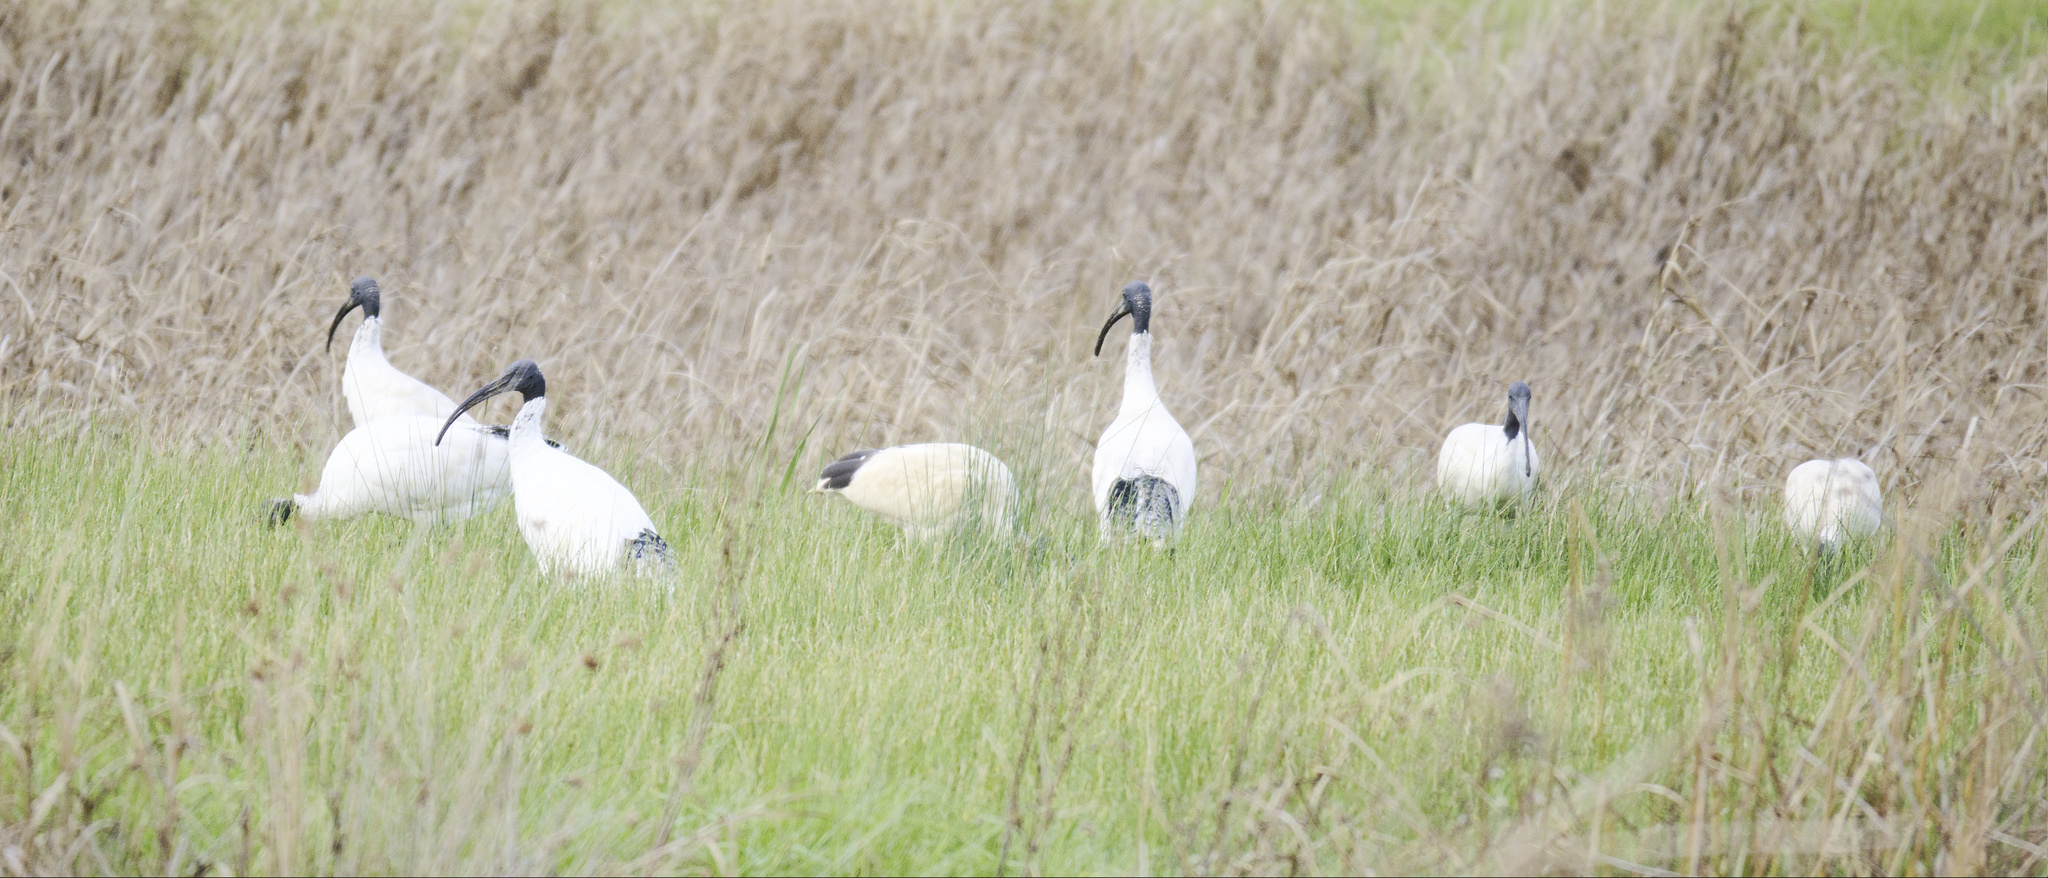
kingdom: Animalia
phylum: Chordata
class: Aves
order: Pelecaniformes
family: Threskiornithidae
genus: Threskiornis
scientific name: Threskiornis molucca
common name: Australian white ibis
